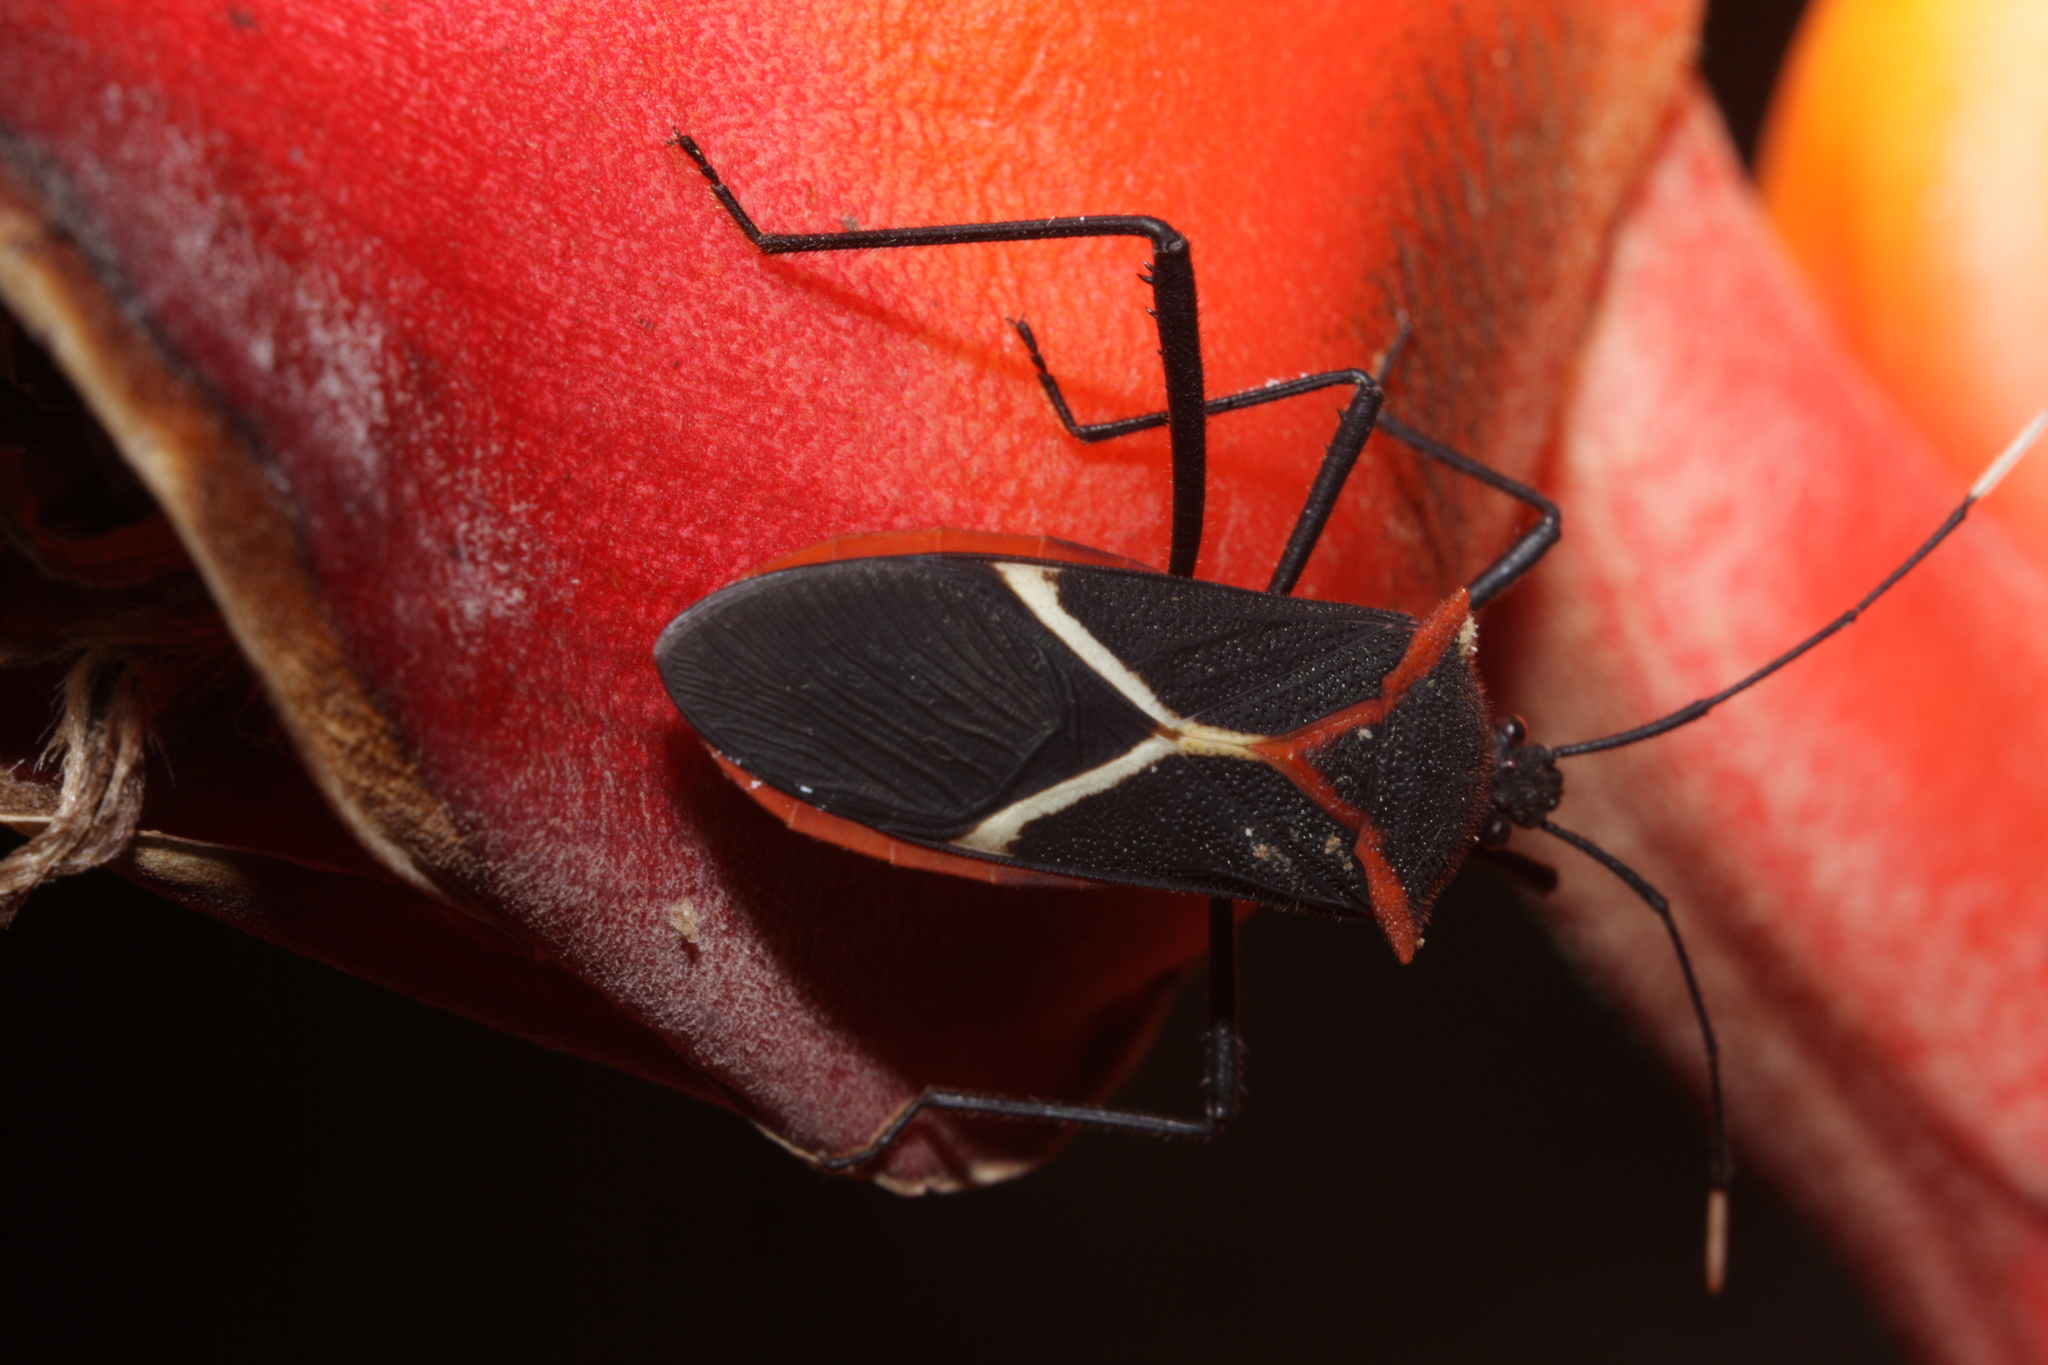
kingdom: Animalia
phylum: Arthropoda
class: Insecta
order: Hemiptera
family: Coreidae
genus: Leptoscelis
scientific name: Leptoscelis tricolor
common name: Heliconia bug
